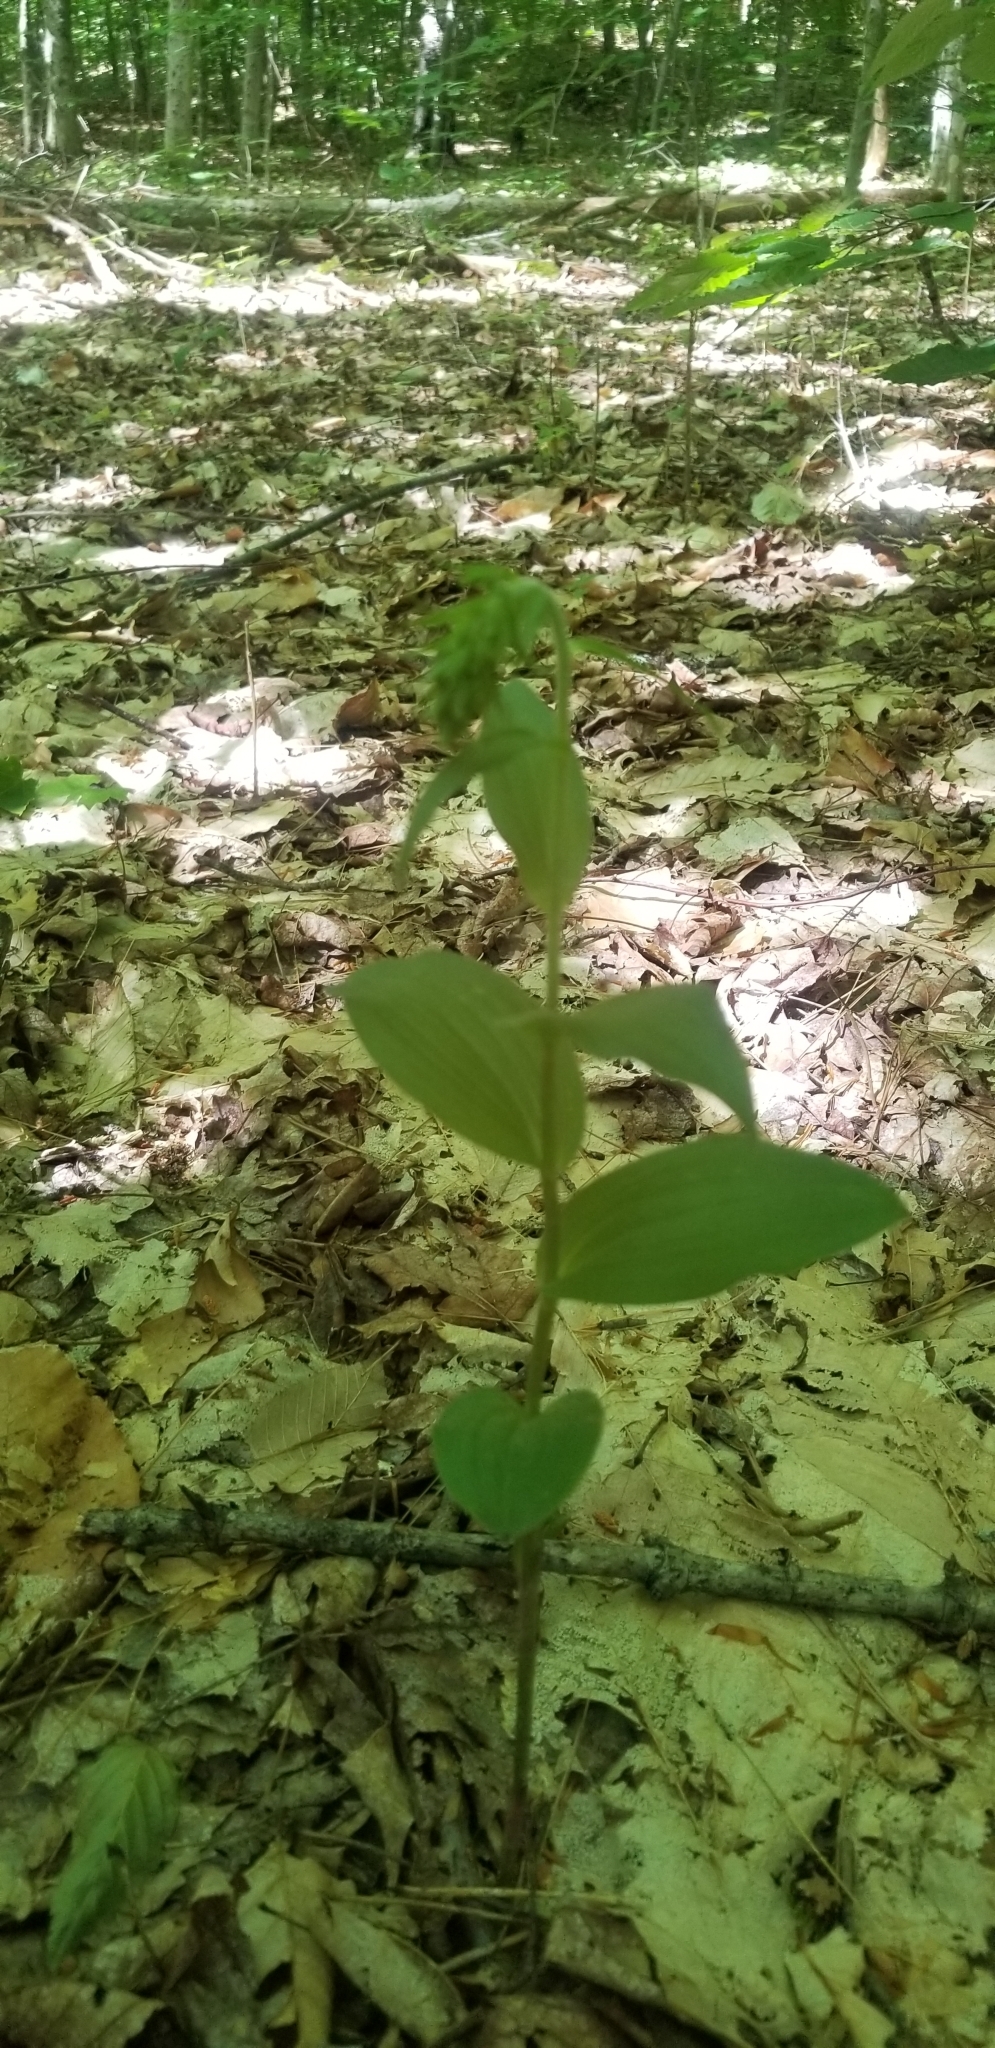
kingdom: Plantae
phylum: Tracheophyta
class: Liliopsida
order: Asparagales
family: Orchidaceae
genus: Epipactis
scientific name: Epipactis helleborine
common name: Broad-leaved helleborine
